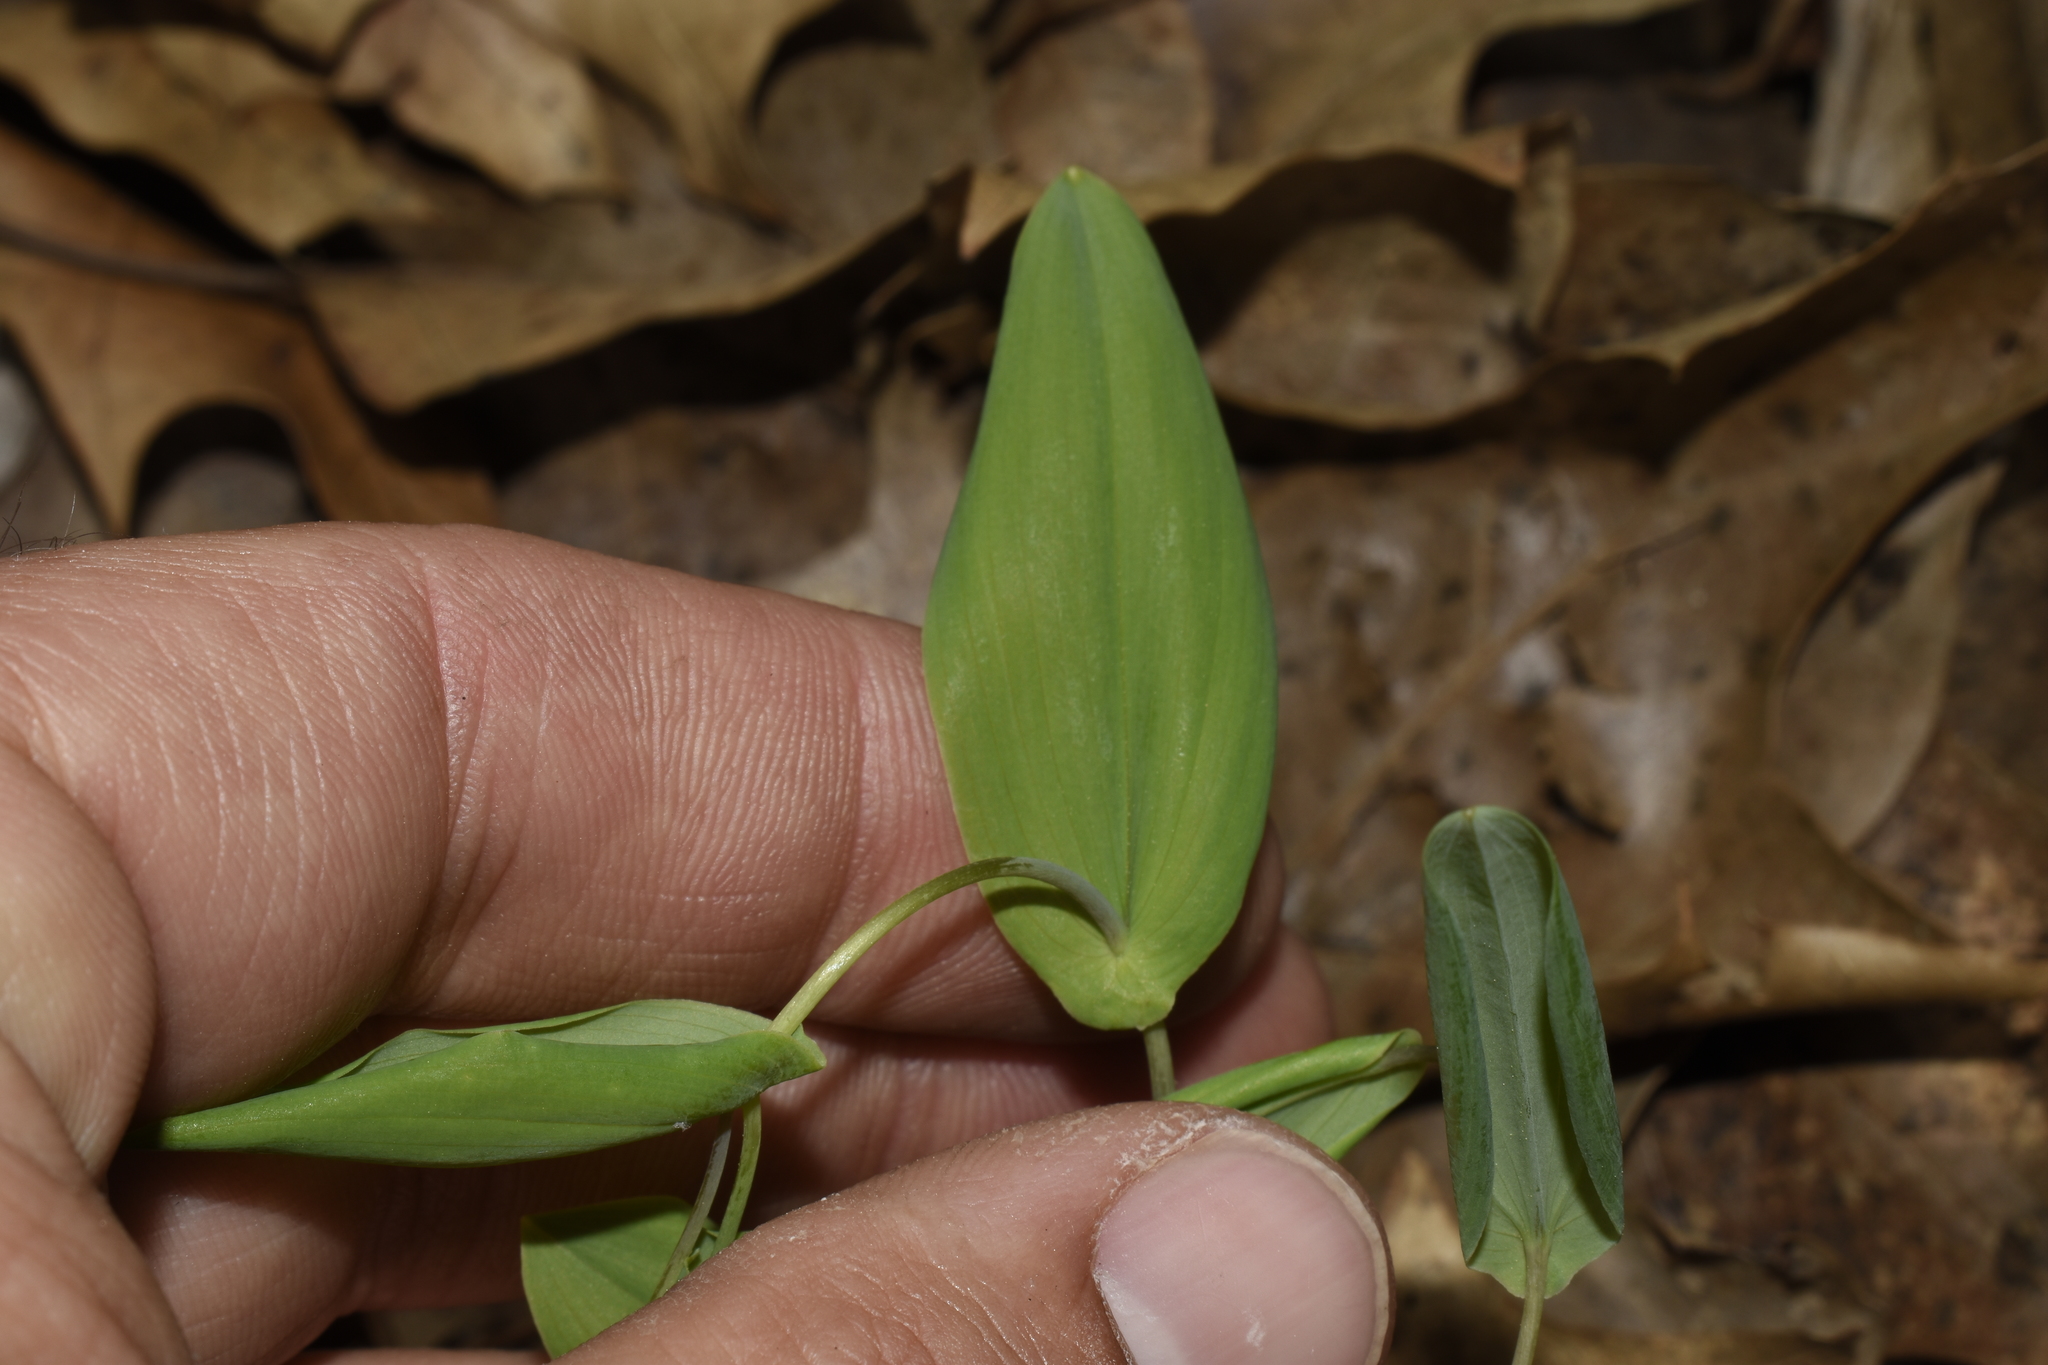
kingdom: Plantae
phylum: Tracheophyta
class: Liliopsida
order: Liliales
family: Colchicaceae
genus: Uvularia
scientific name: Uvularia perfoliata
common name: Perfoliate bellwort
